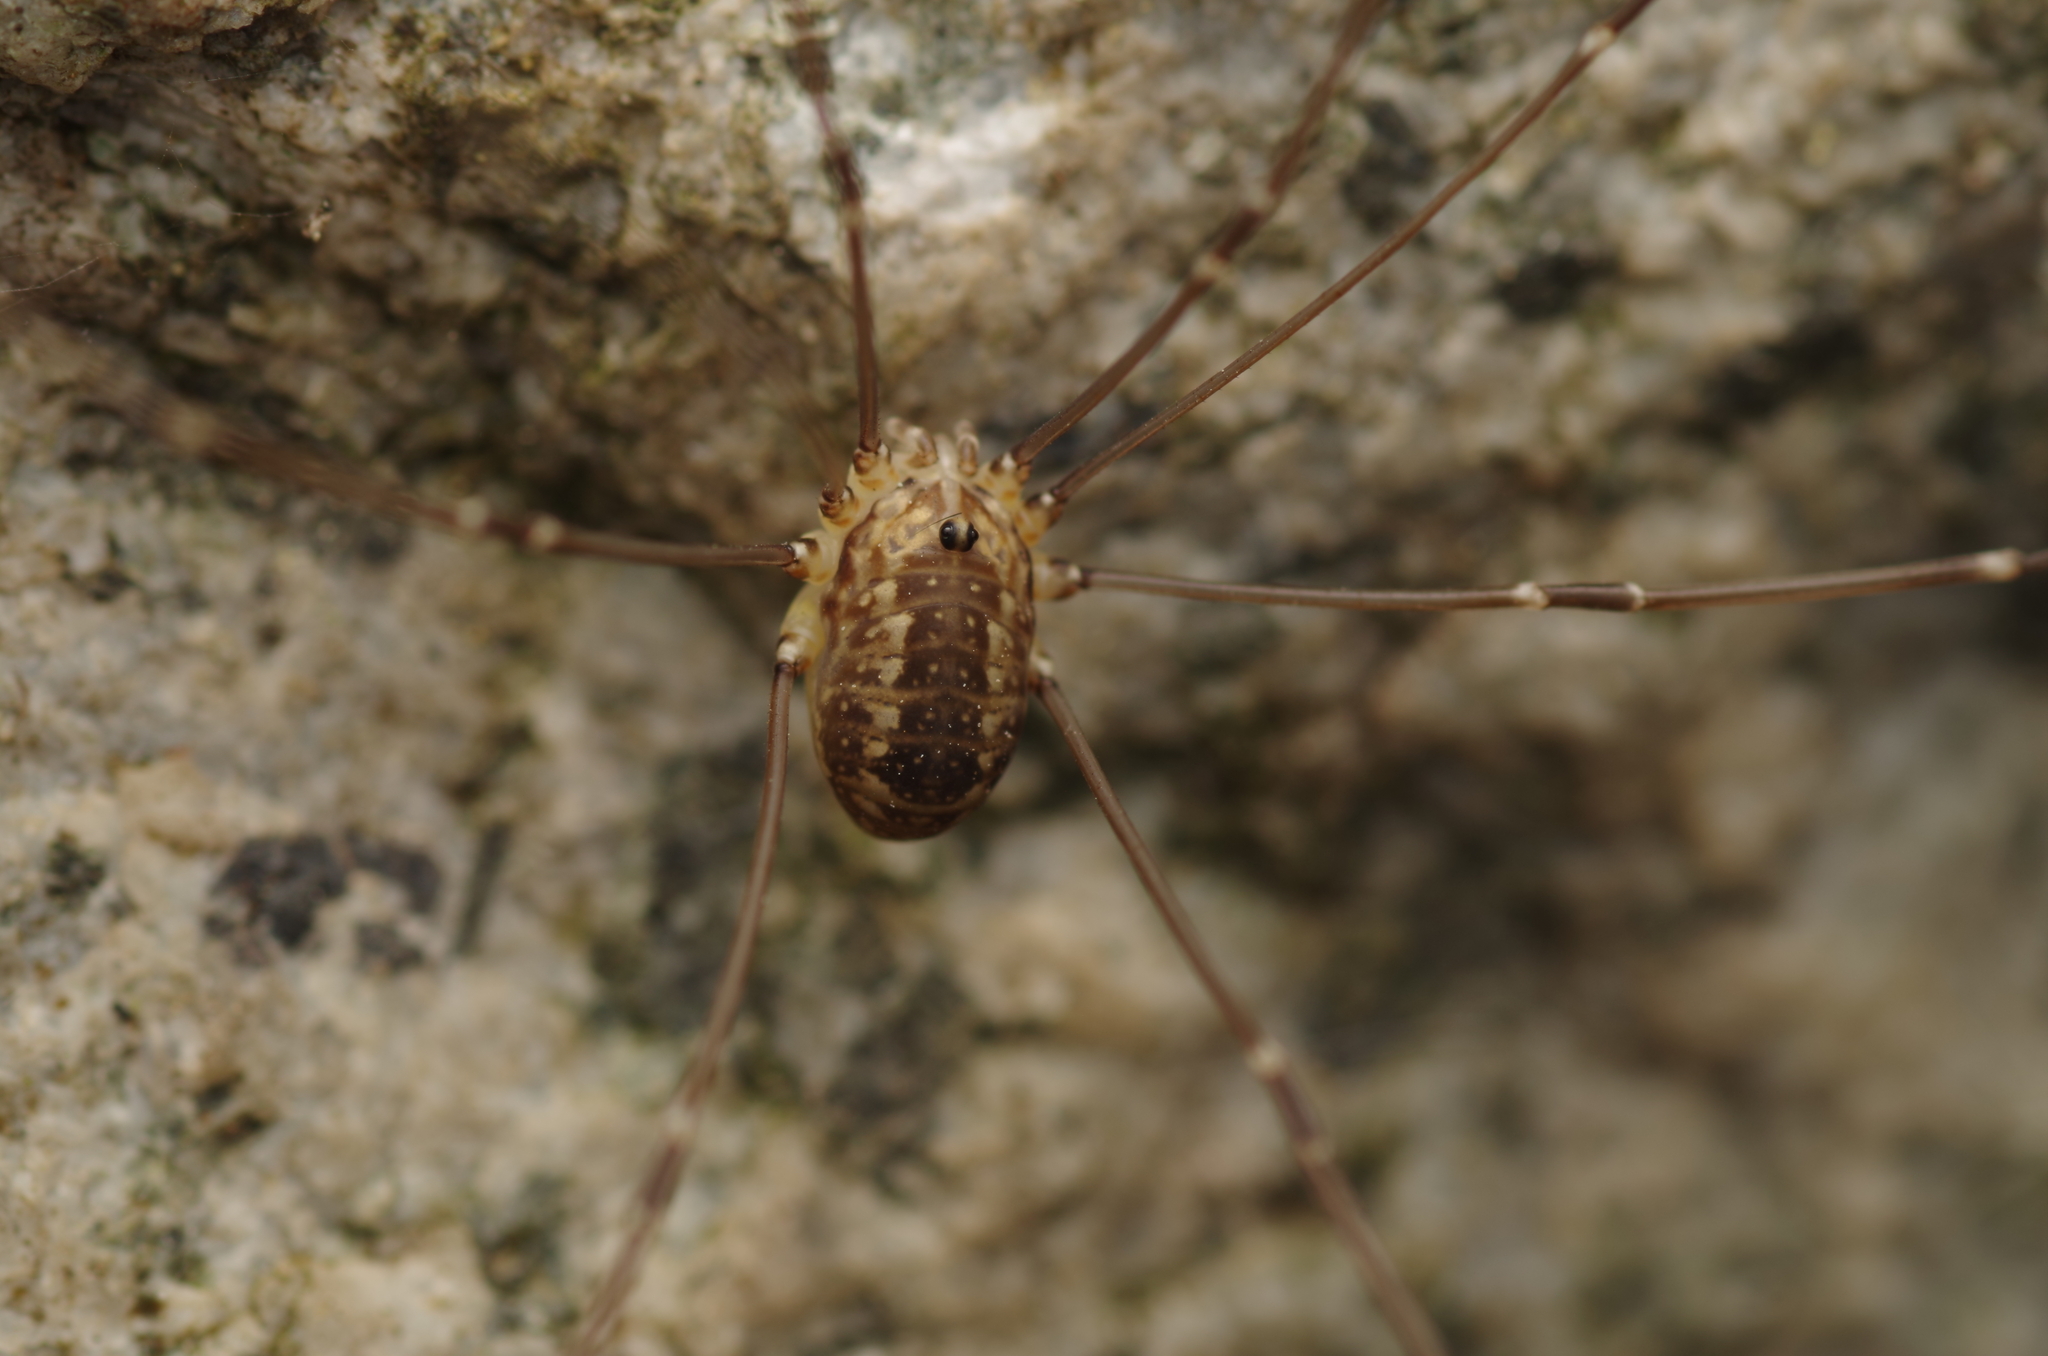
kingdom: Animalia
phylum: Arthropoda
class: Arachnida
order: Opiliones
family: Sclerosomatidae
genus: Leiobunum
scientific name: Leiobunum rotundum
